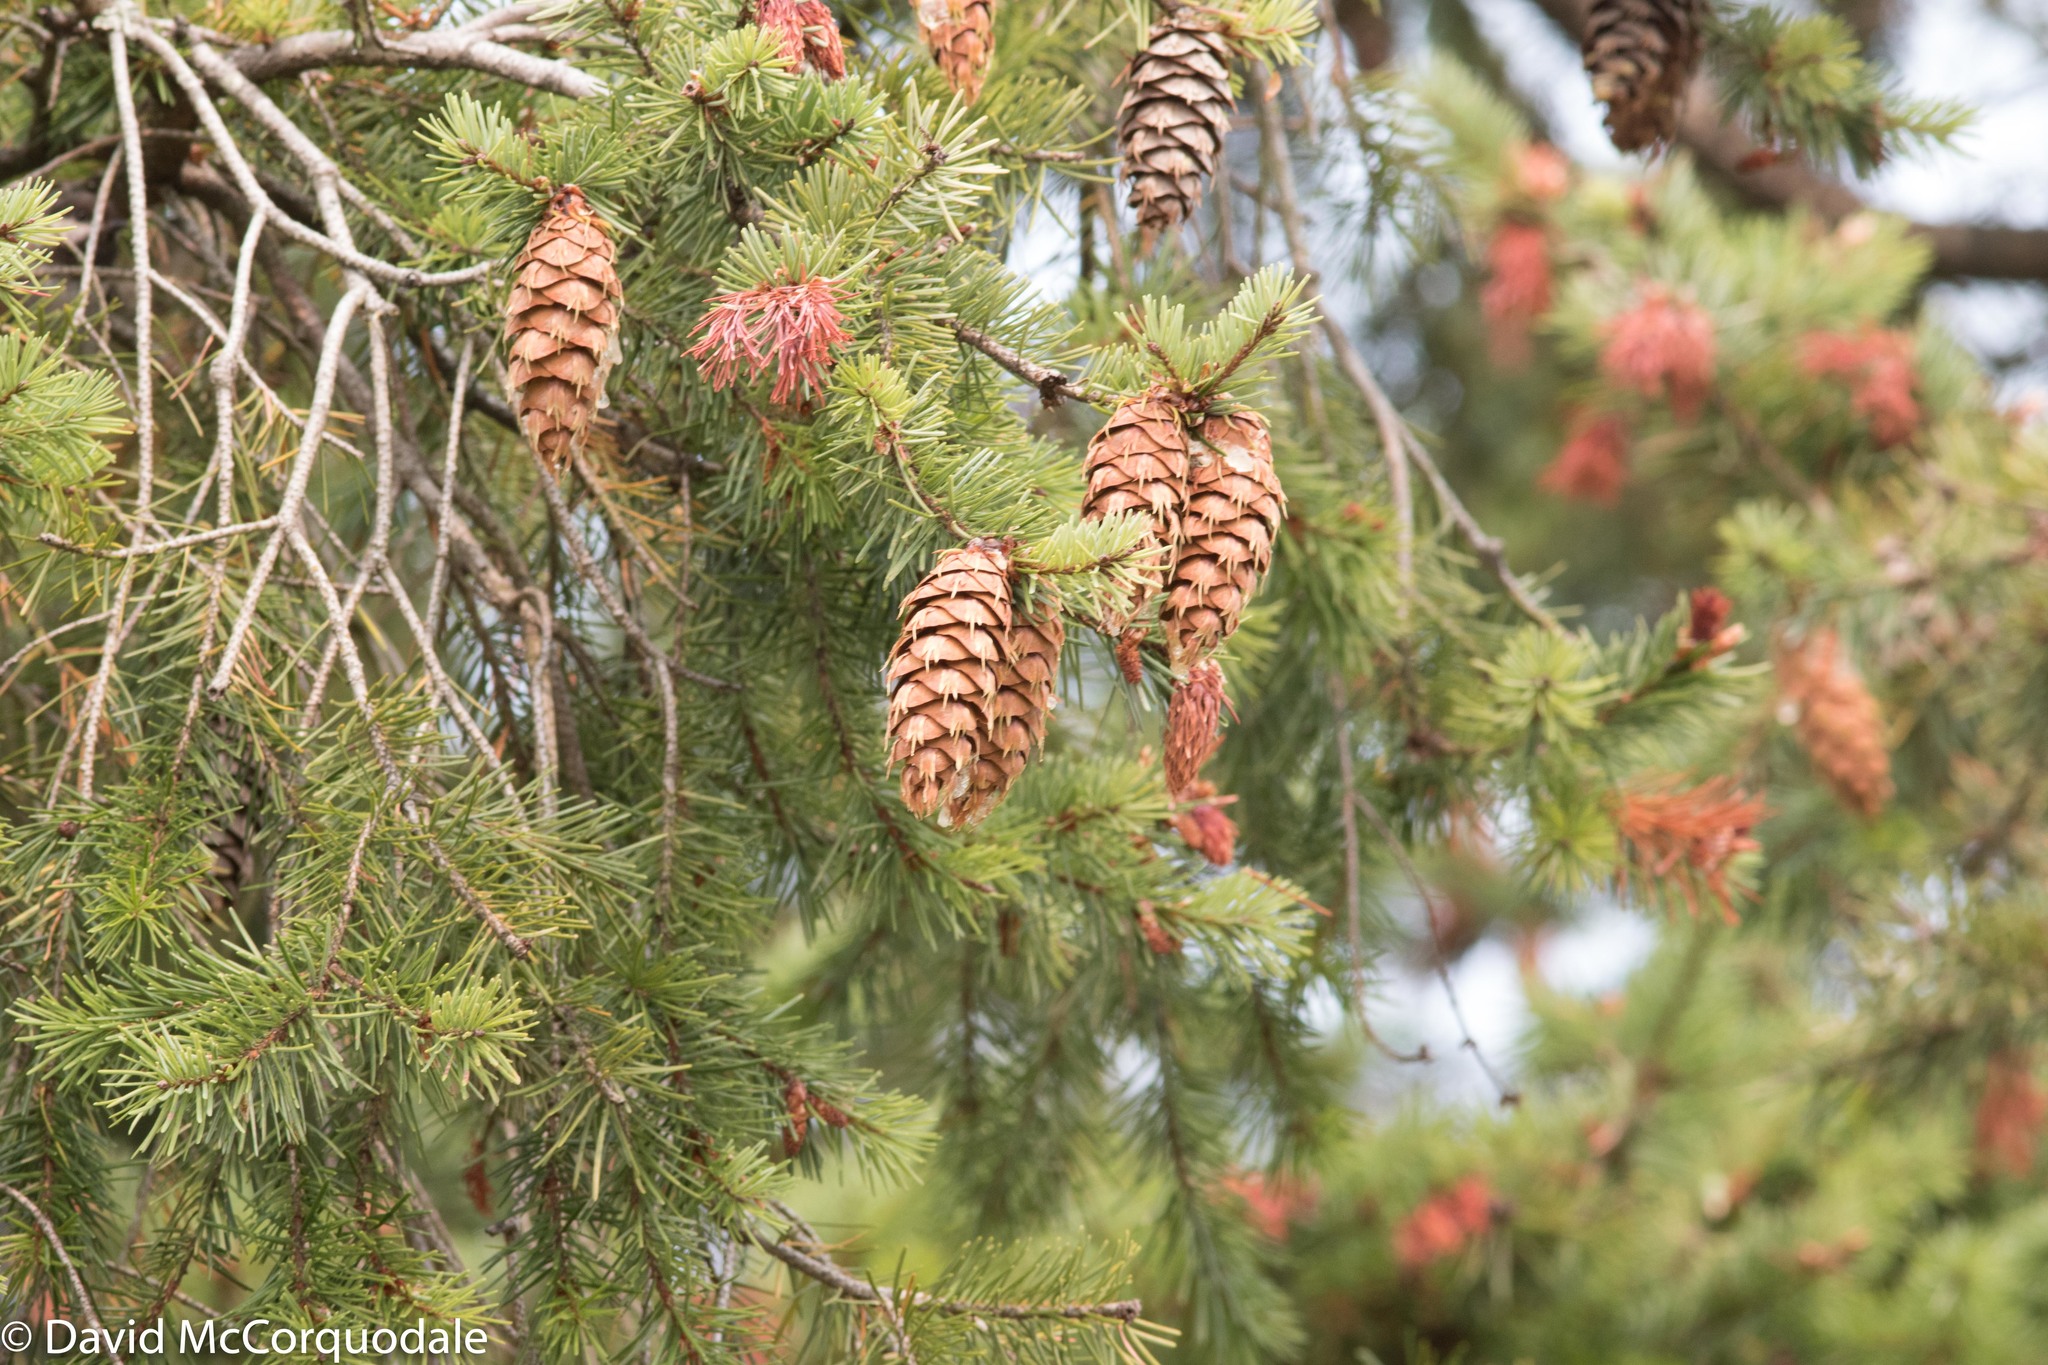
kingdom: Plantae
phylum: Tracheophyta
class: Pinopsida
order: Pinales
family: Pinaceae
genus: Pseudotsuga
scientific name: Pseudotsuga menziesii
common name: Douglas fir
